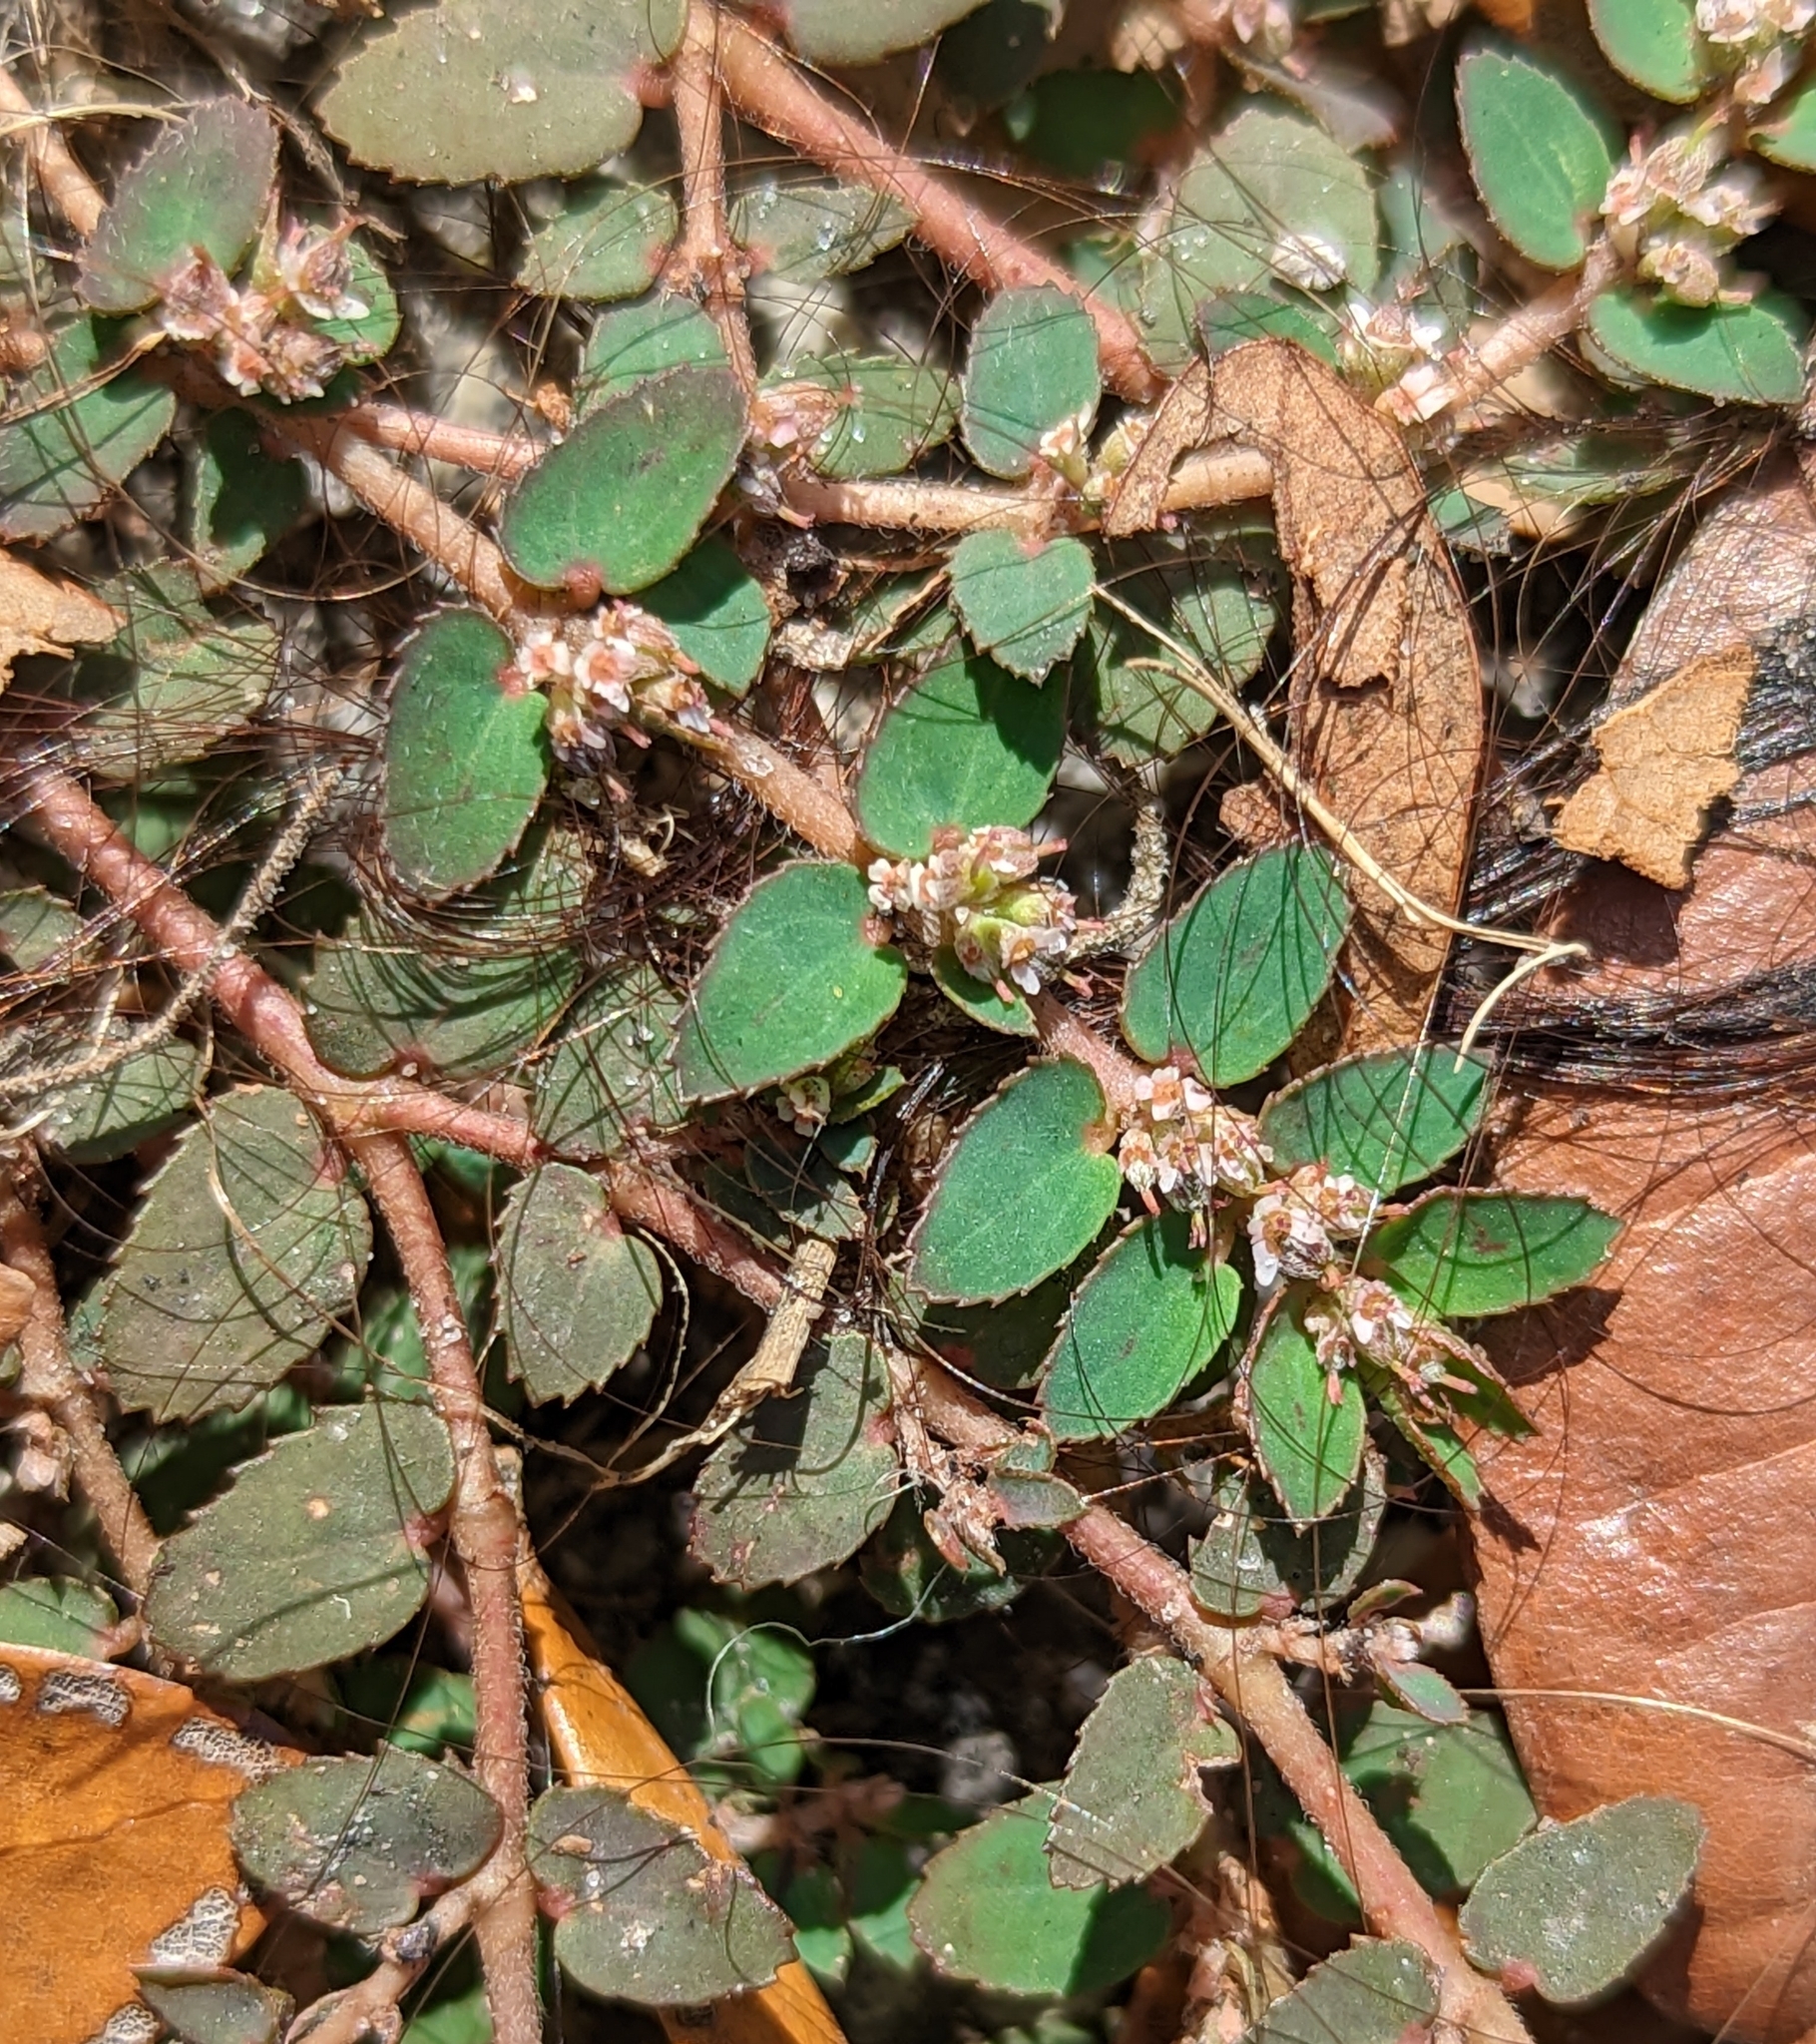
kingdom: Plantae
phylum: Tracheophyta
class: Magnoliopsida
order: Malpighiales
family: Euphorbiaceae
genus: Euphorbia
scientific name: Euphorbia thymifolia
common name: Gulf sandmat
